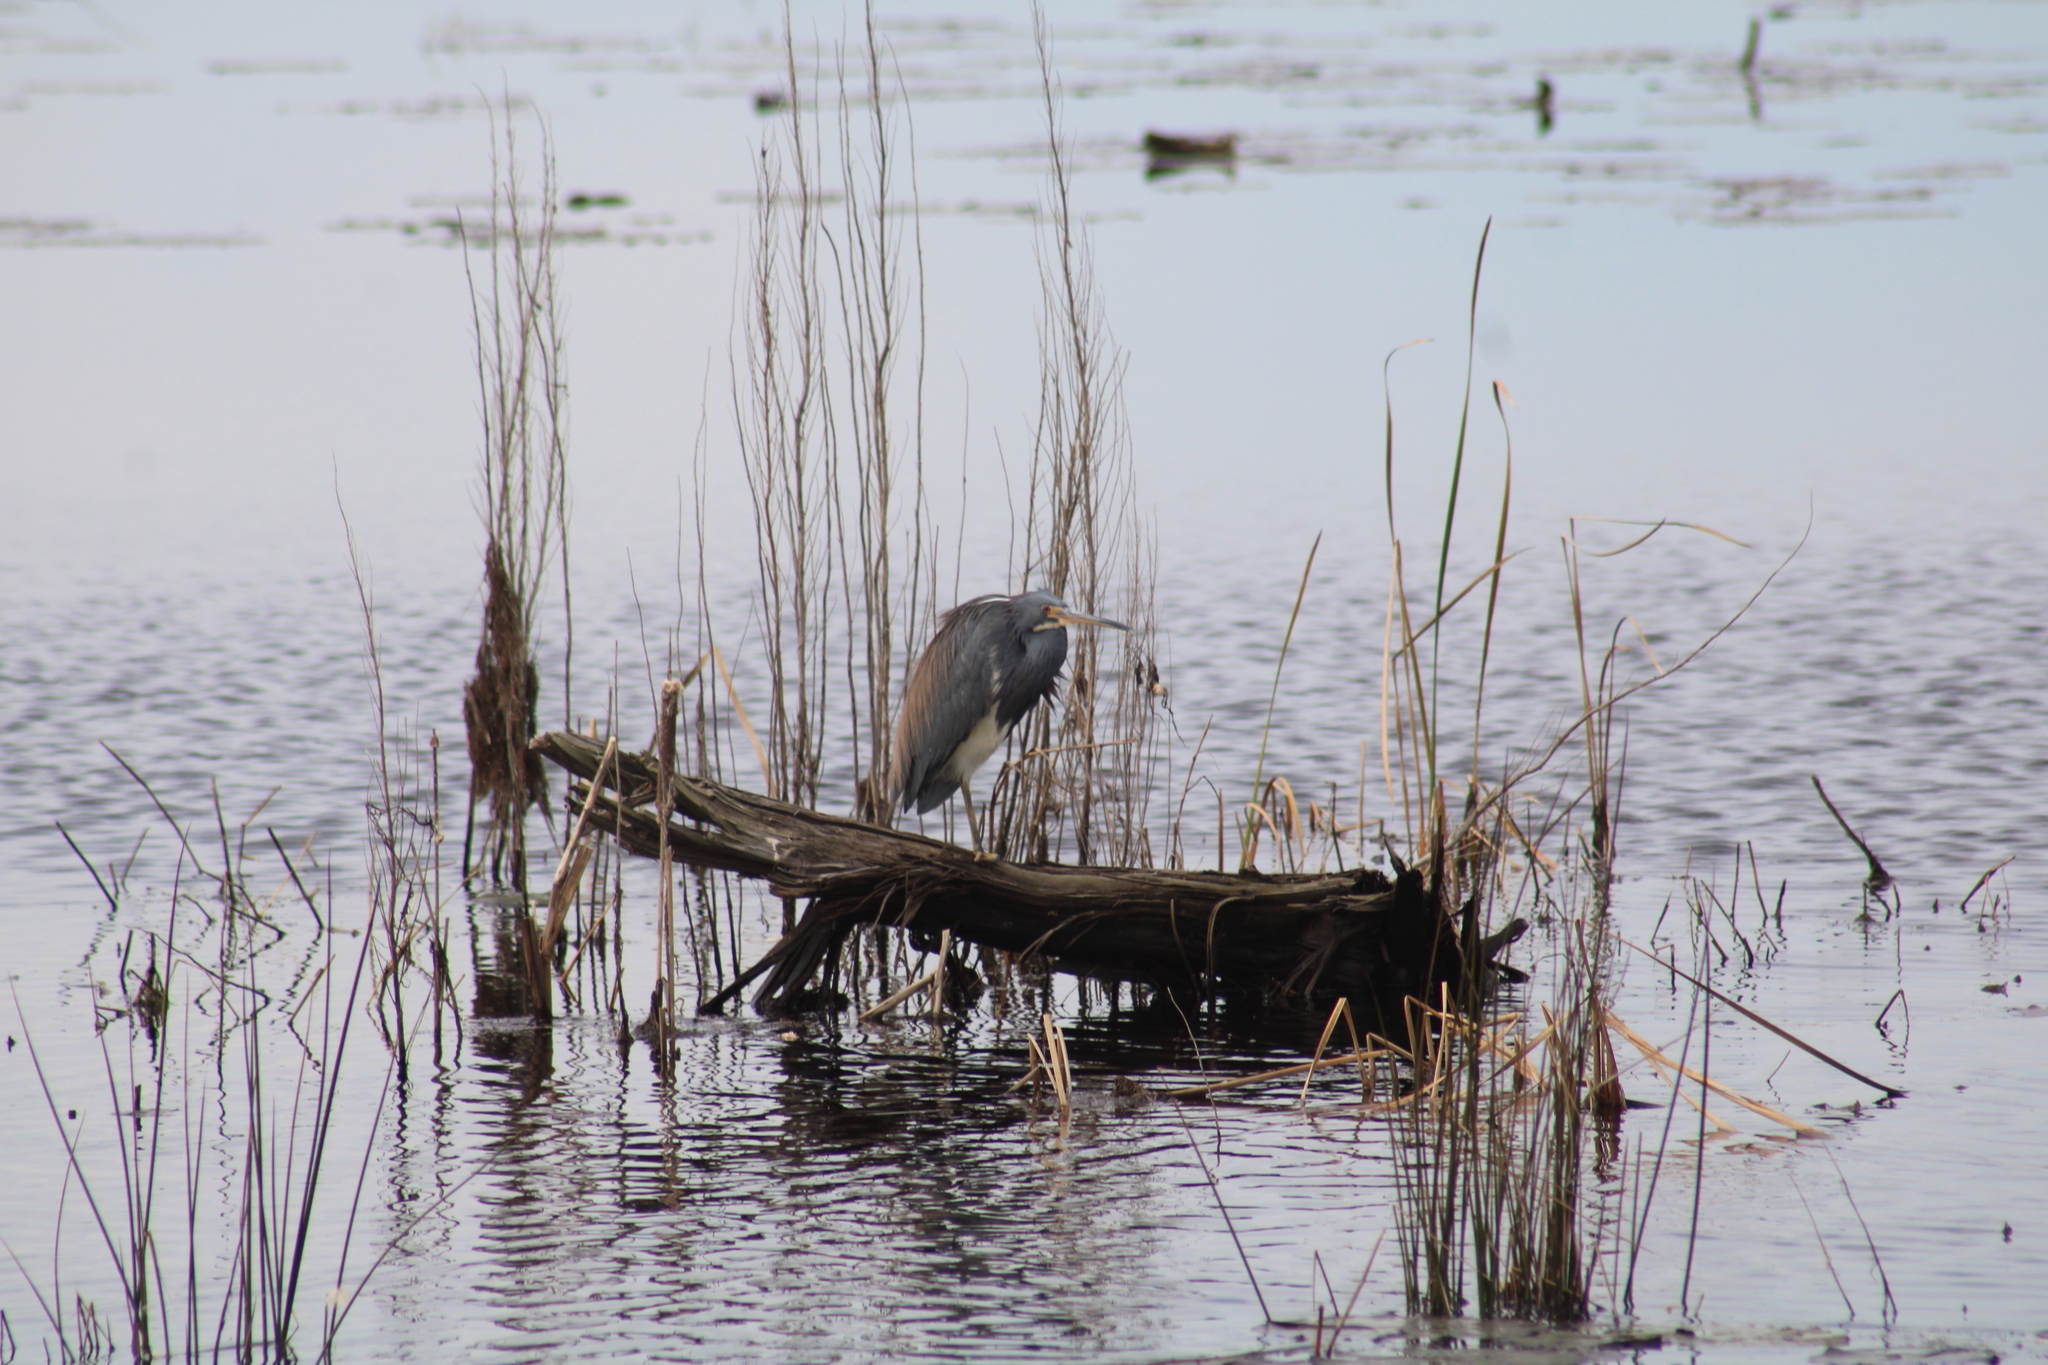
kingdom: Animalia
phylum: Chordata
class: Aves
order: Pelecaniformes
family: Ardeidae
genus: Egretta
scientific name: Egretta tricolor
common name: Tricolored heron
